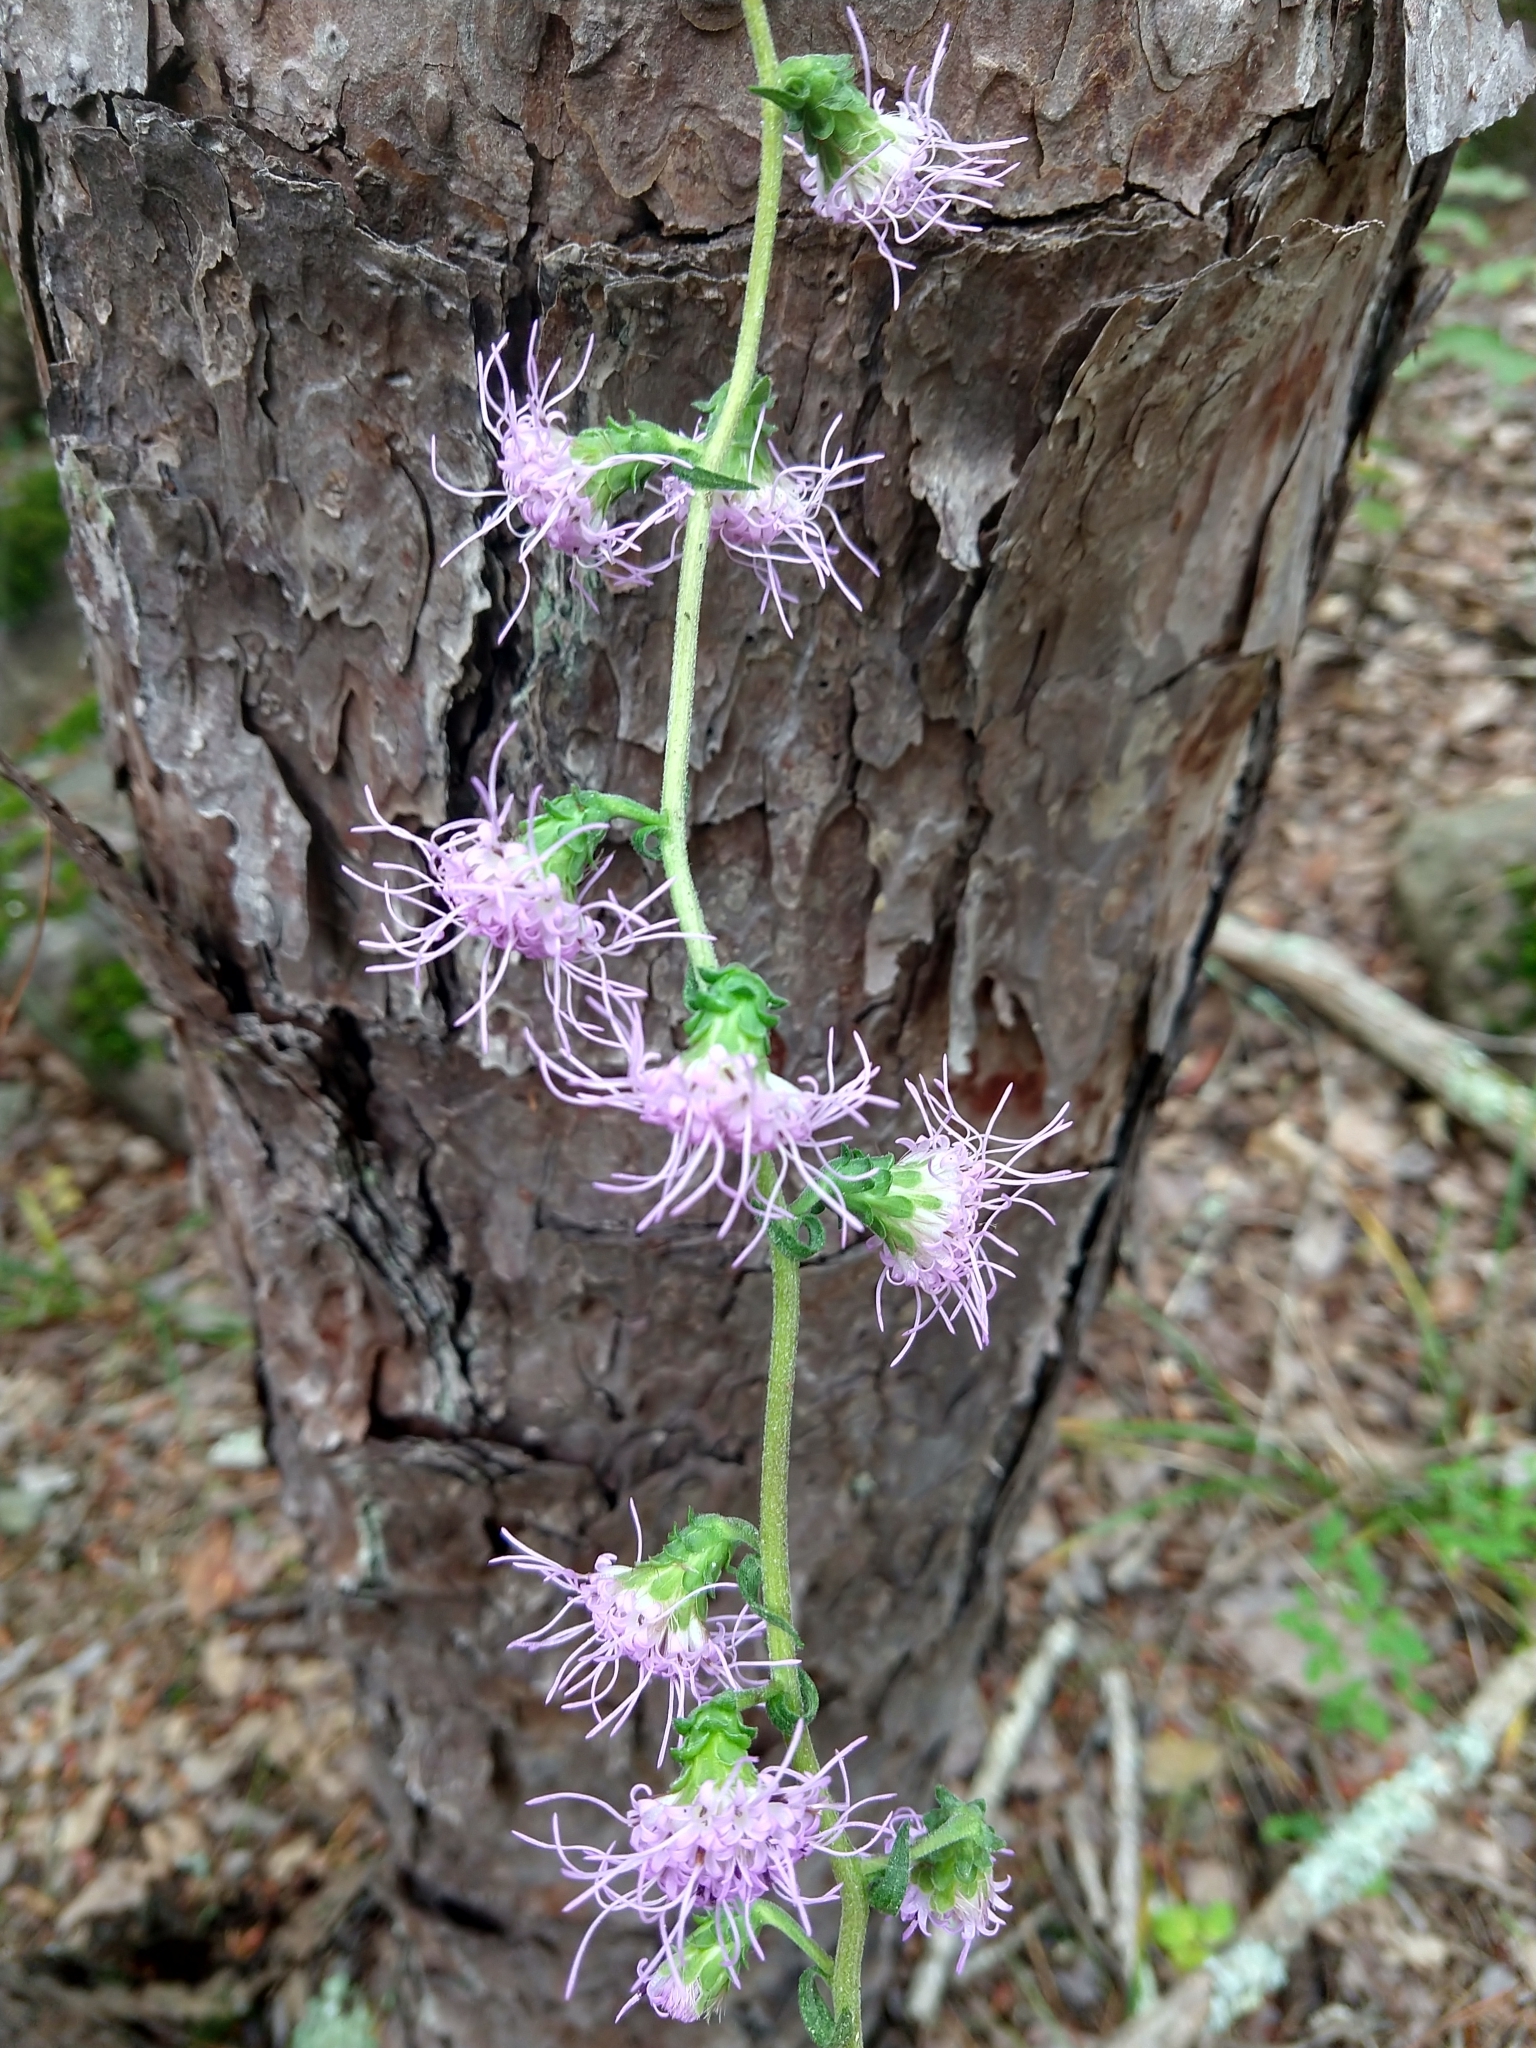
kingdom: Plantae
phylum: Tracheophyta
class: Magnoliopsida
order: Asterales
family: Asteraceae
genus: Liatris
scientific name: Liatris squarrulosa
